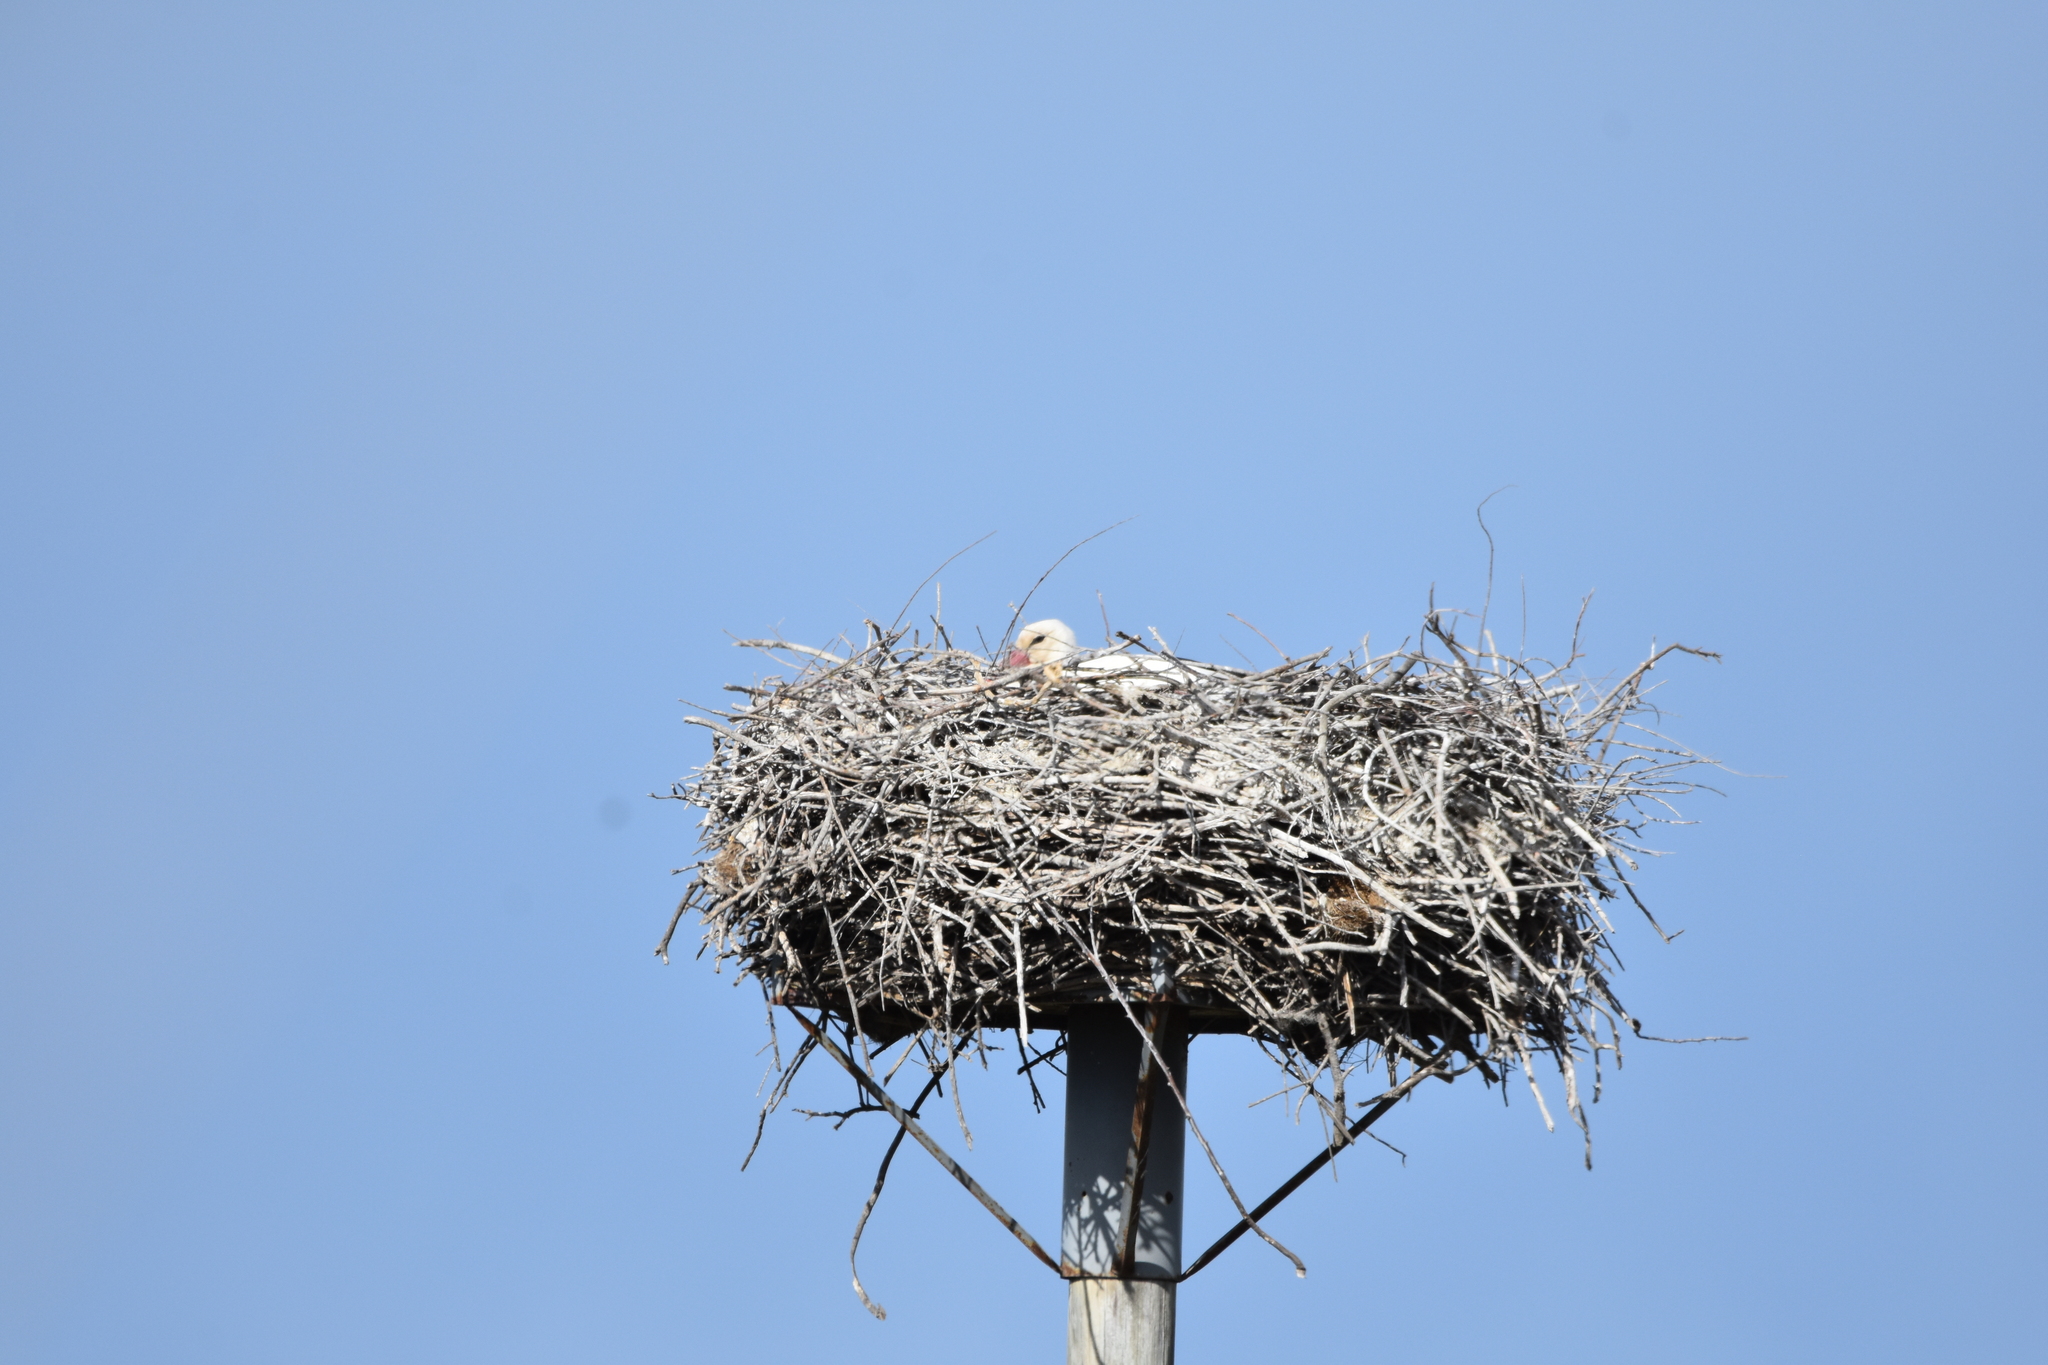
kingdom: Animalia
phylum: Chordata
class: Aves
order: Ciconiiformes
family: Ciconiidae
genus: Ciconia
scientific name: Ciconia ciconia
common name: White stork
